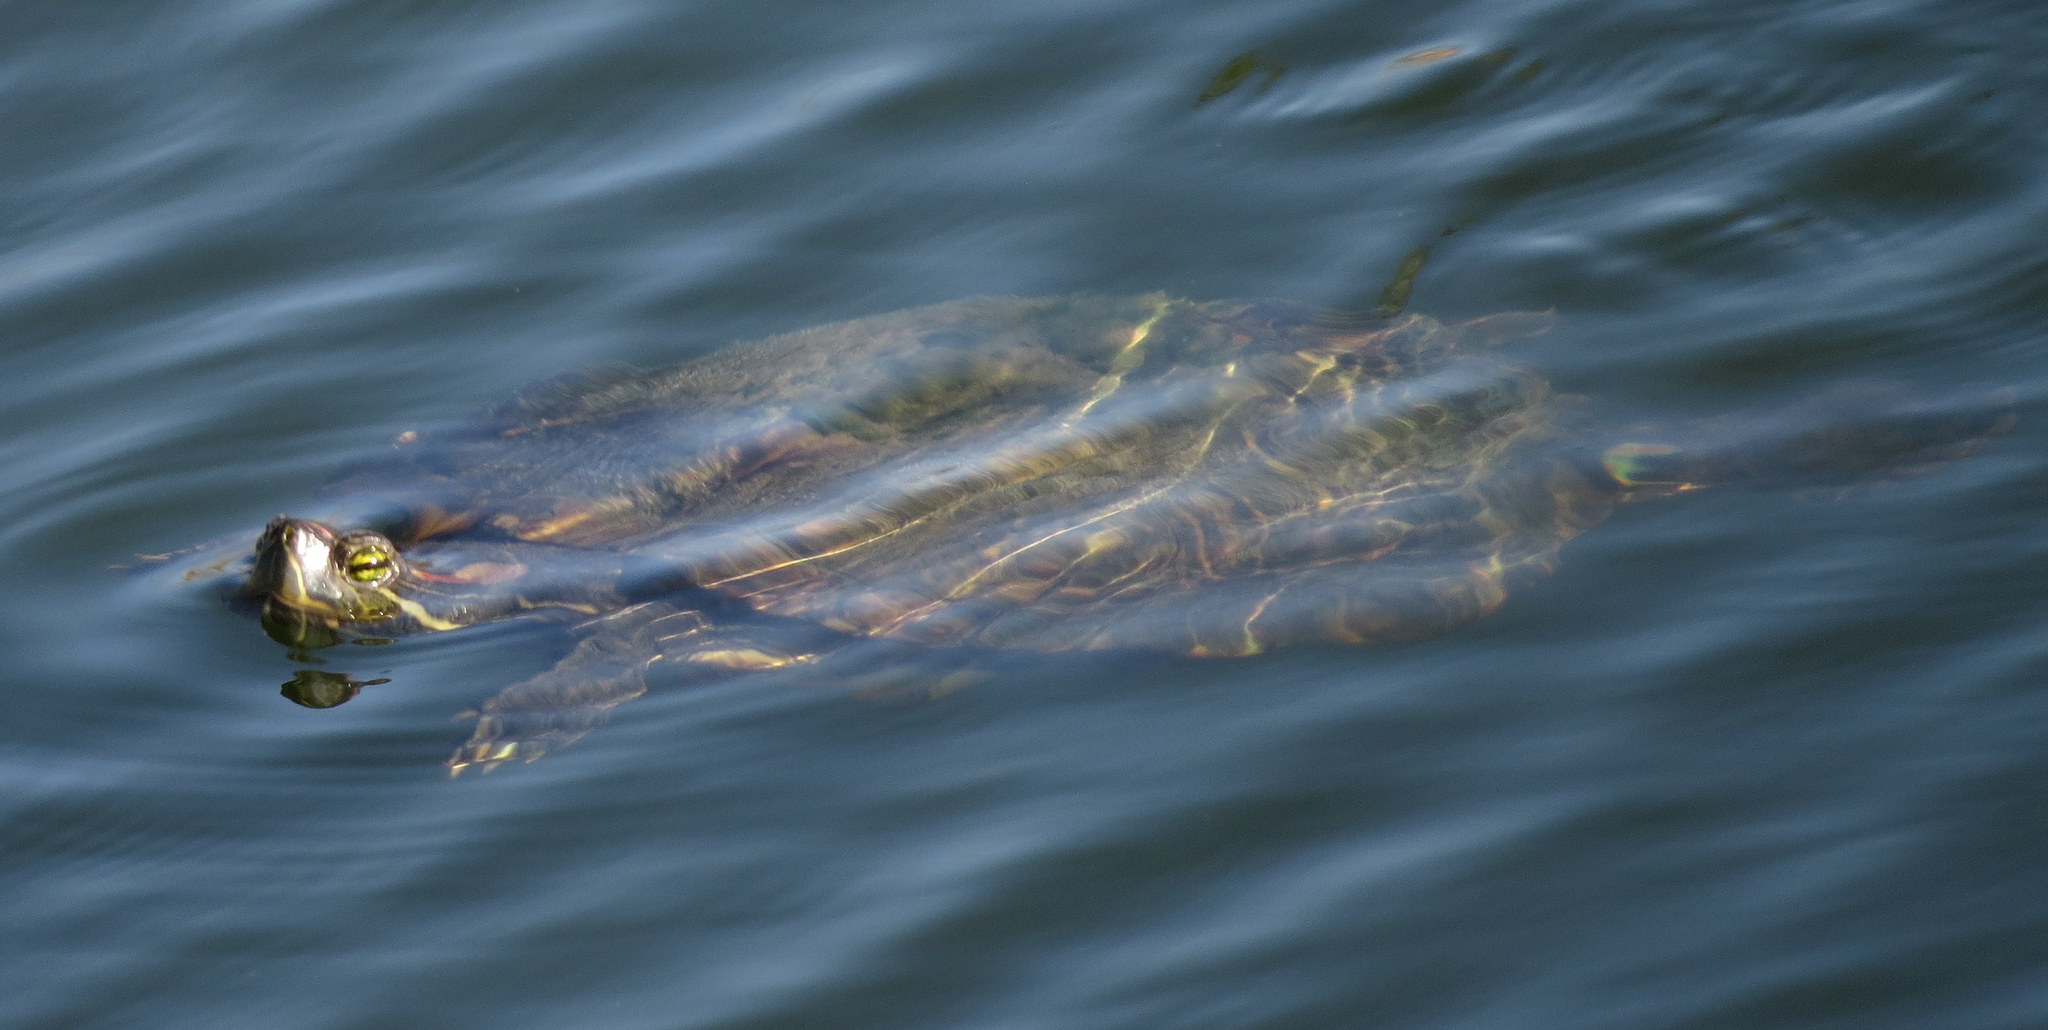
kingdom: Animalia
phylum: Chordata
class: Testudines
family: Emydidae
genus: Trachemys
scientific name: Trachemys scripta
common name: Slider
